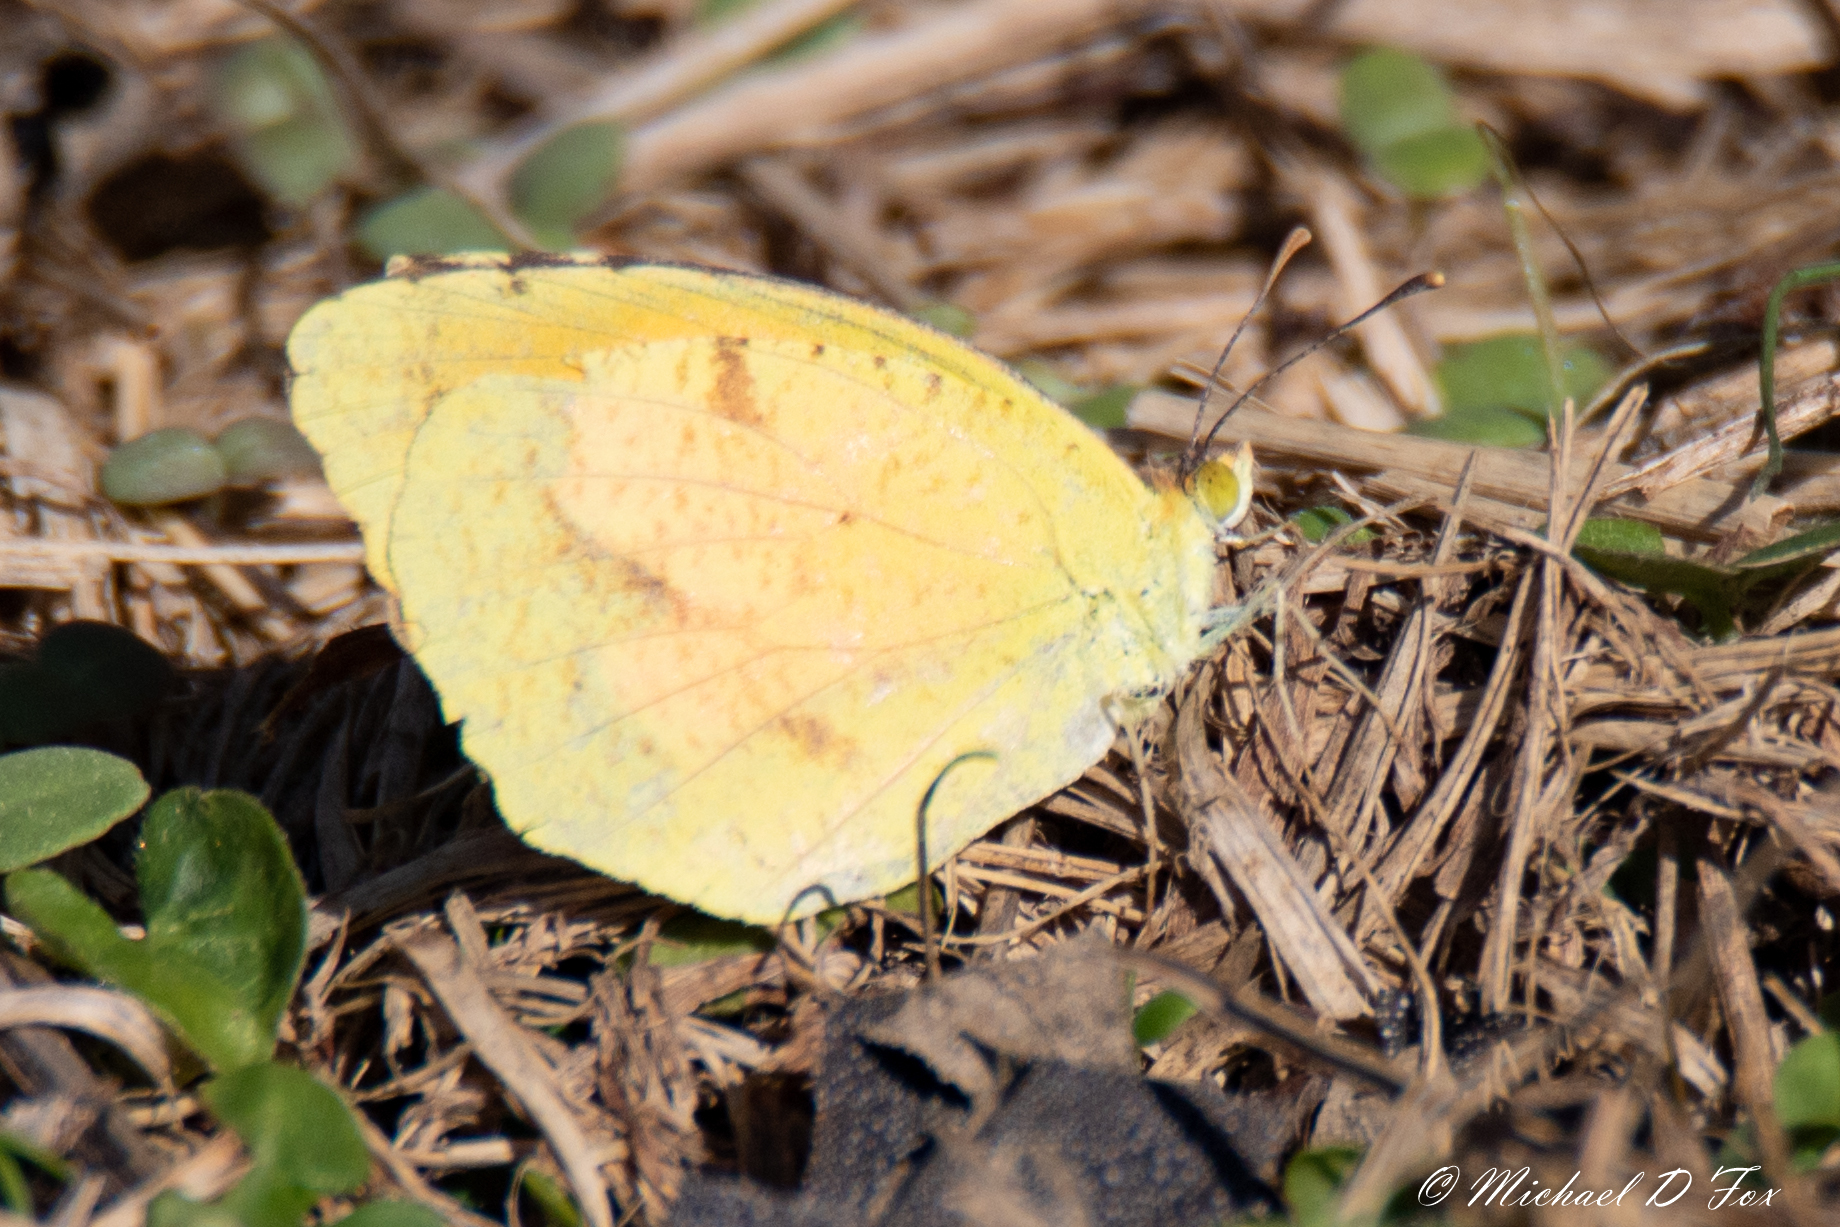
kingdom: Animalia
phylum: Arthropoda
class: Insecta
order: Lepidoptera
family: Pieridae
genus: Abaeis
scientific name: Abaeis nicippe
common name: Sleepy orange
